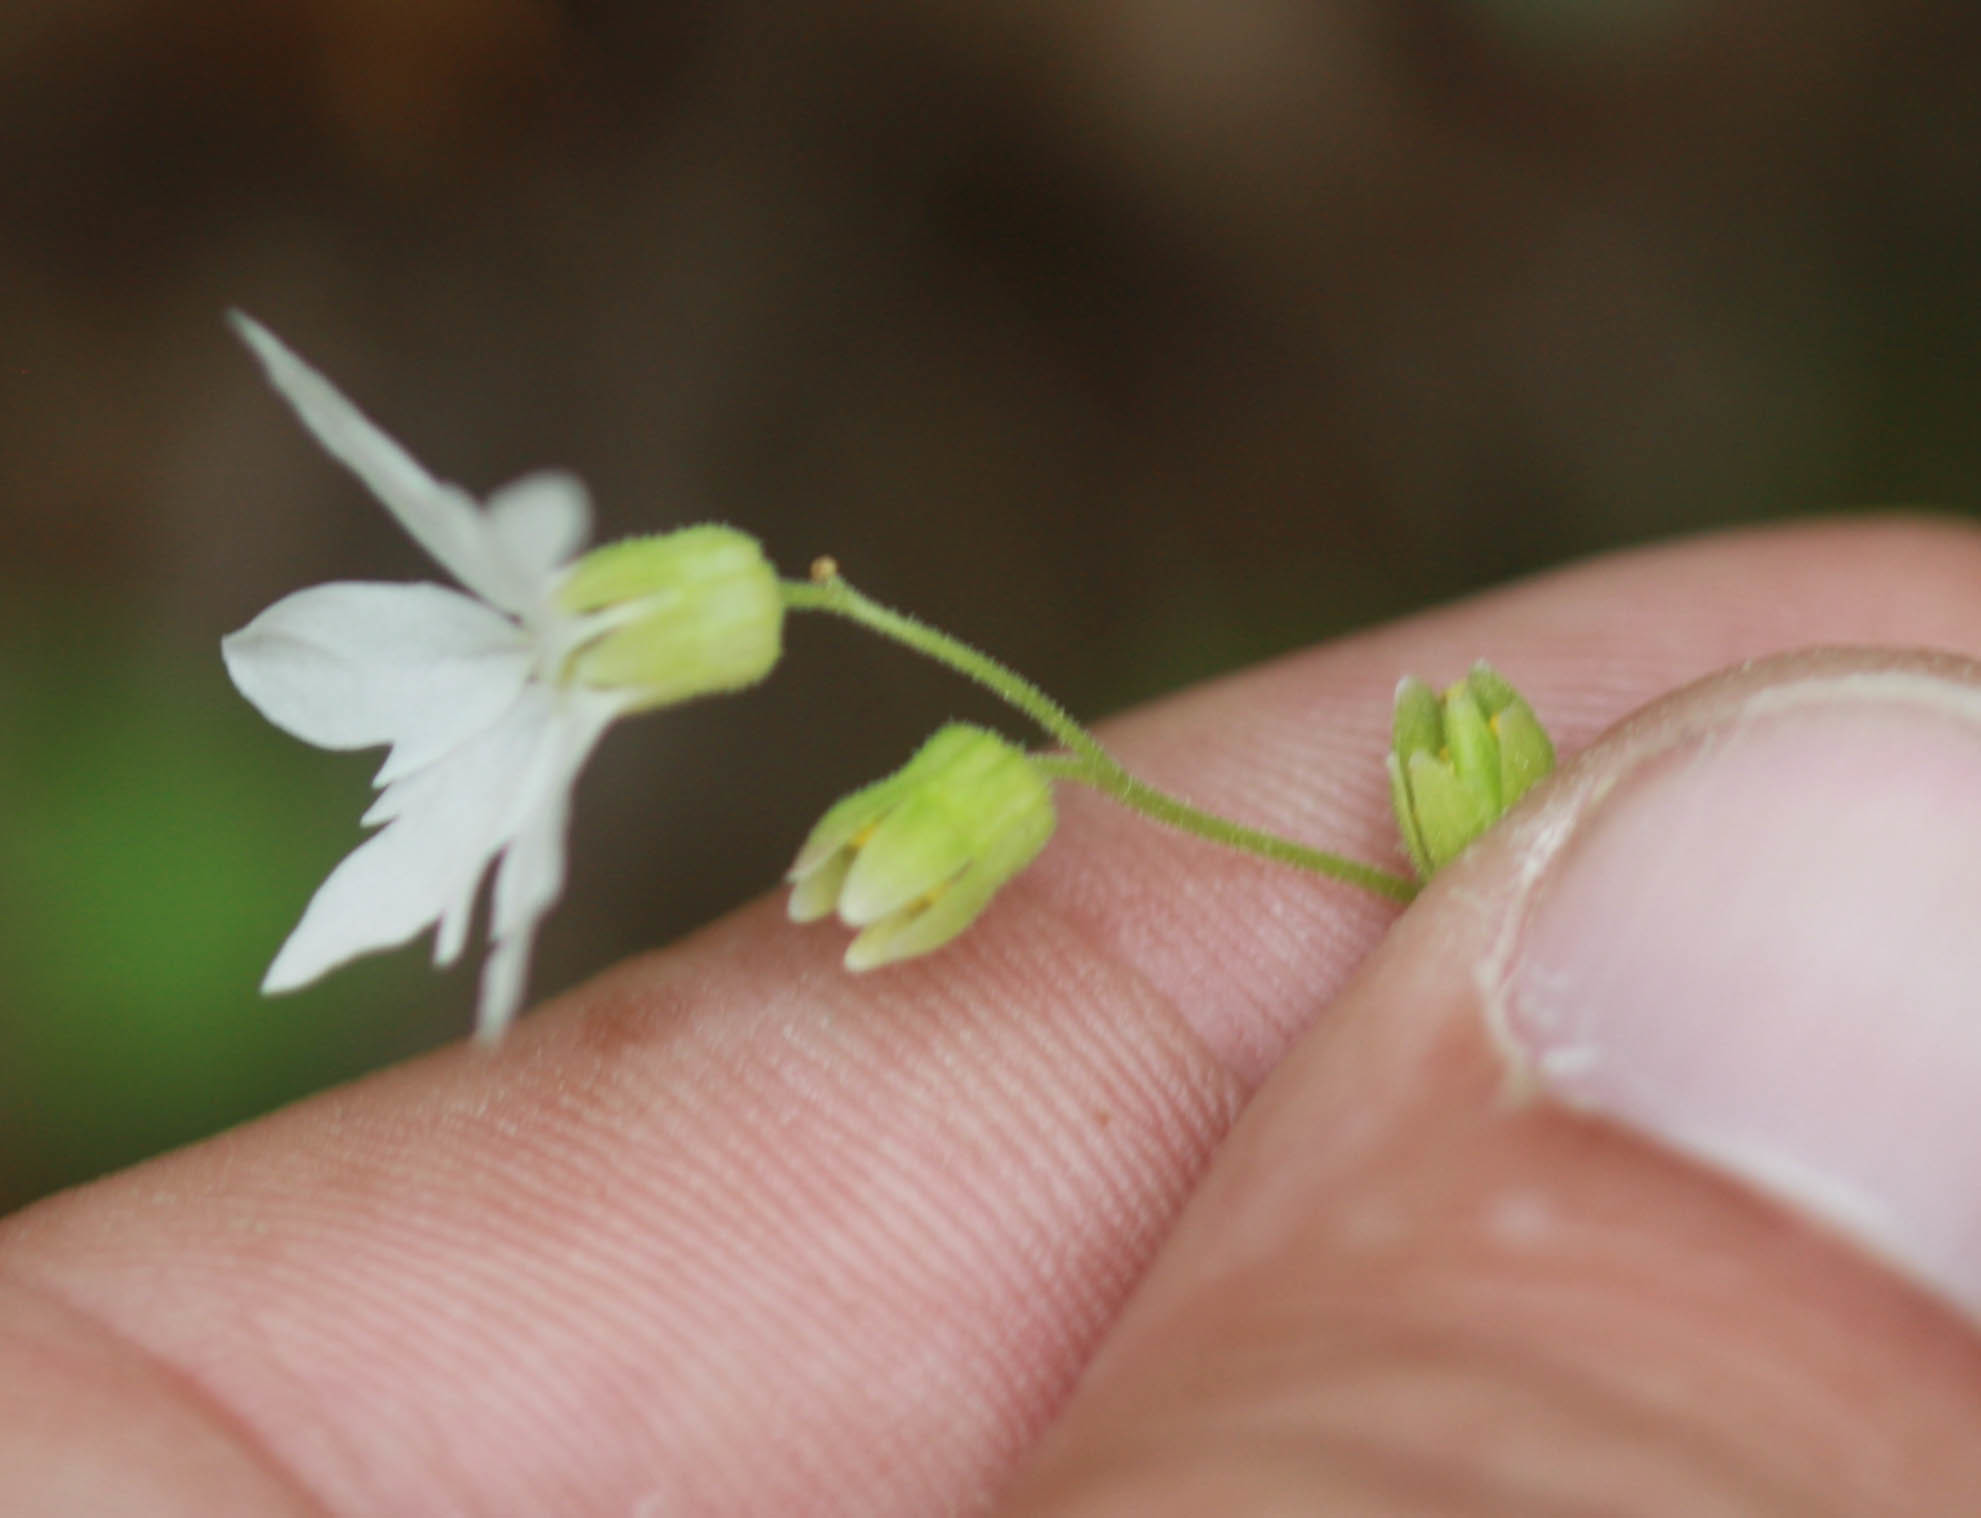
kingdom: Plantae
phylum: Tracheophyta
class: Magnoliopsida
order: Saxifragales
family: Saxifragaceae
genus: Lithophragma
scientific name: Lithophragma heterophyllum
